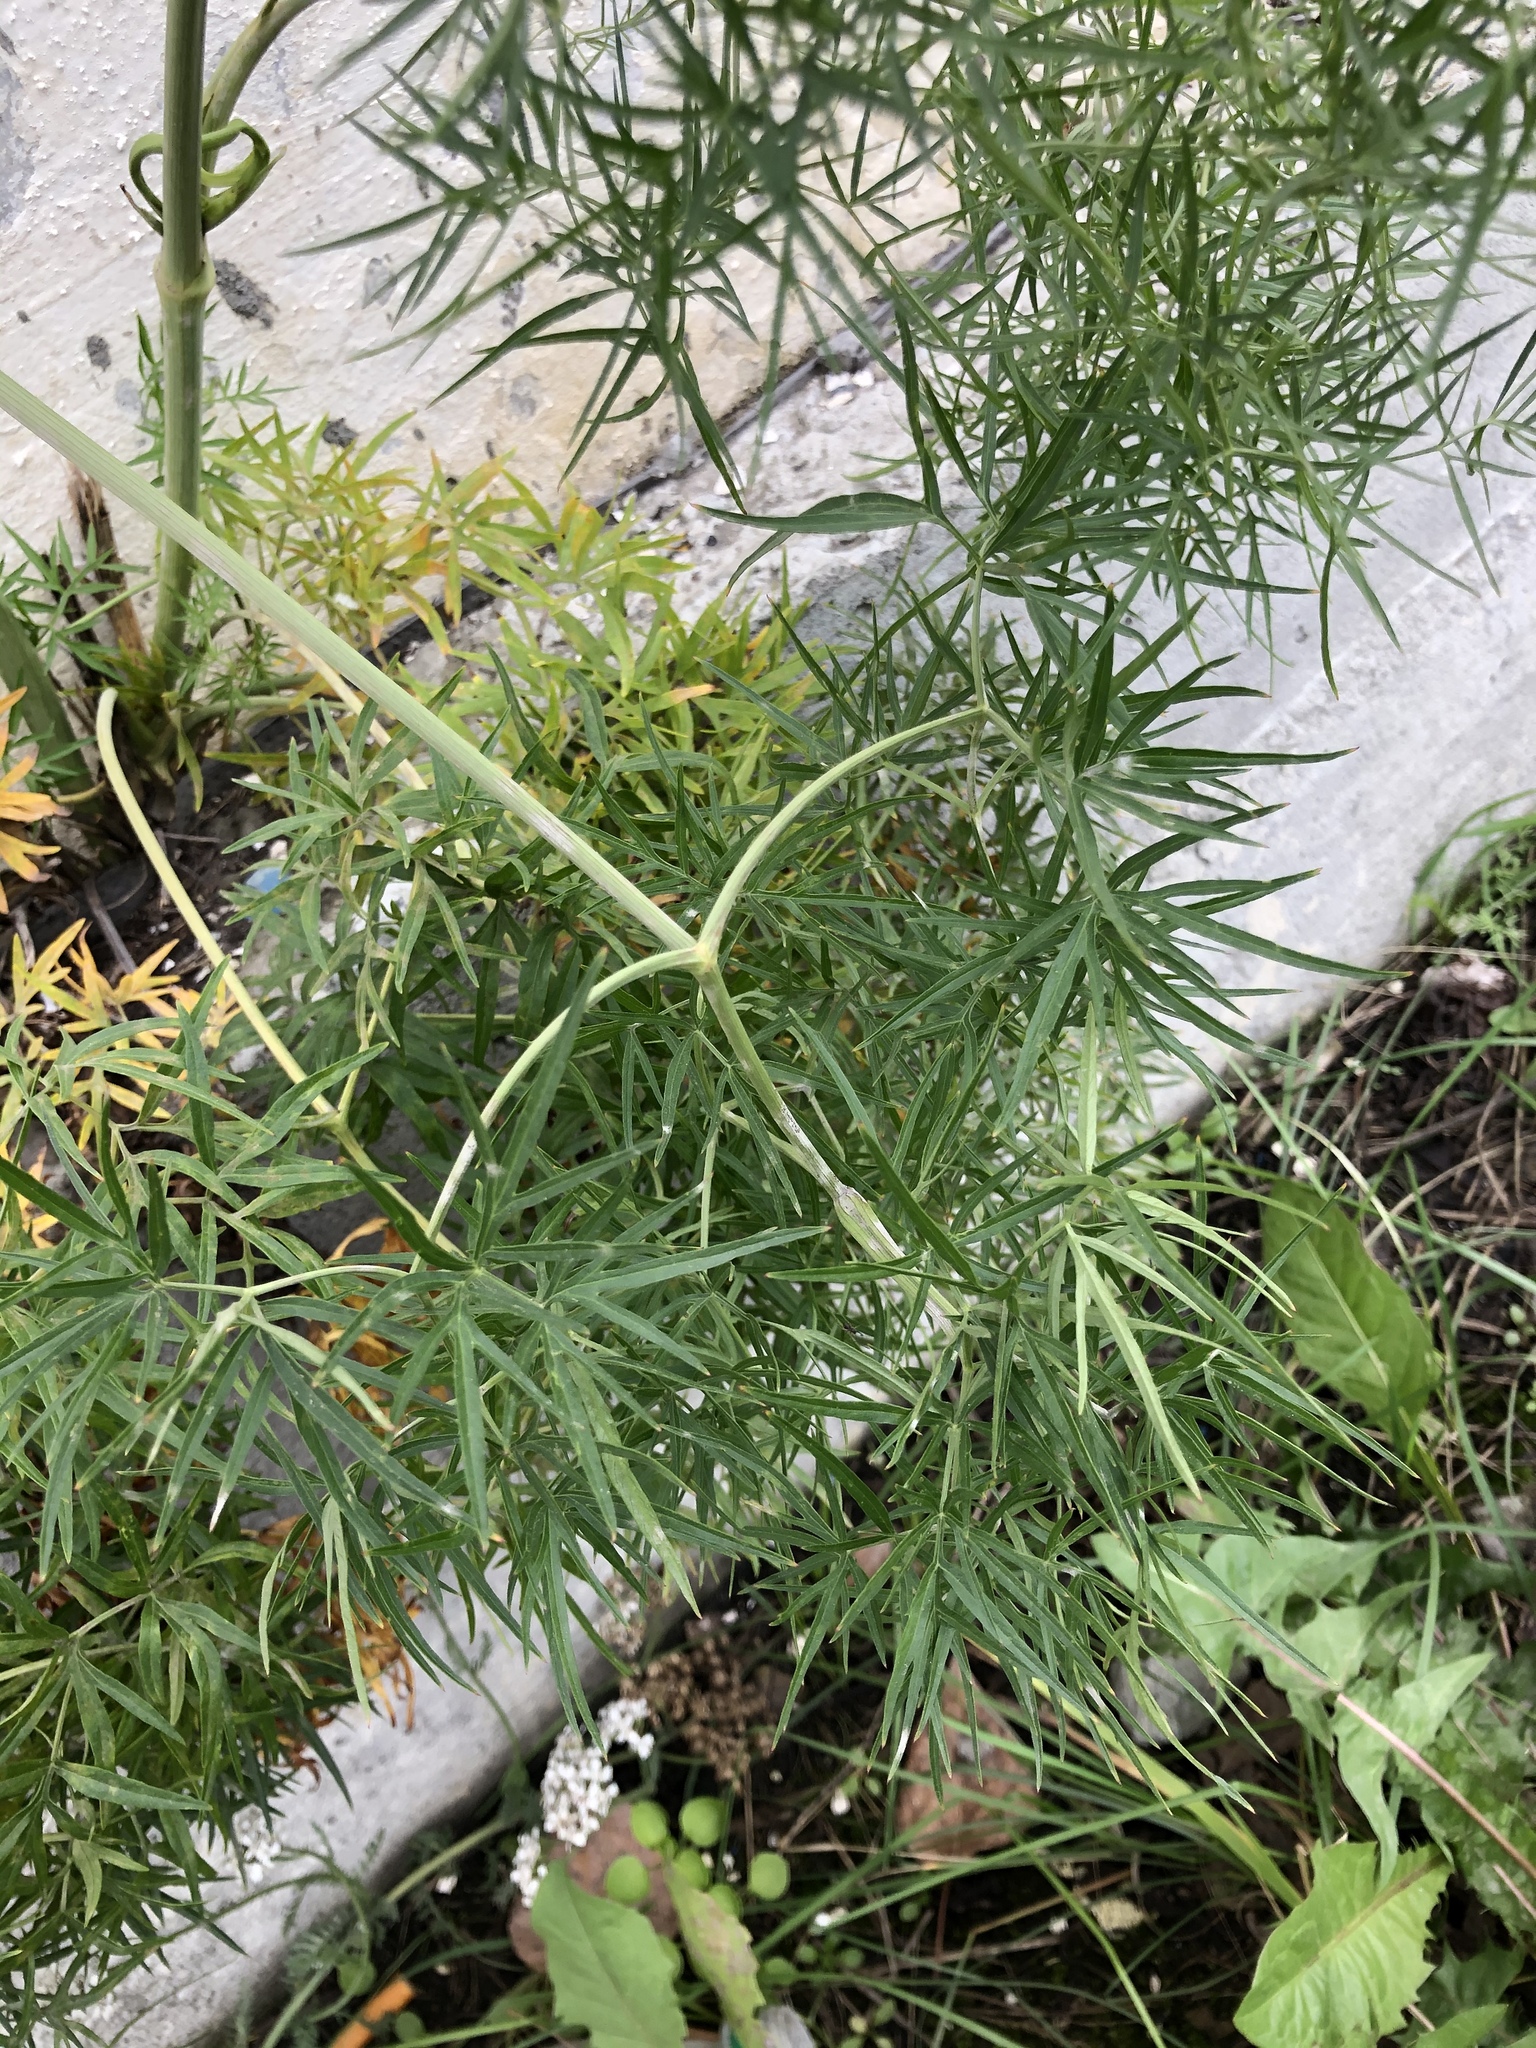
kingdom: Plantae
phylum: Tracheophyta
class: Magnoliopsida
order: Apiales
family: Apiaceae
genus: Cenolophium
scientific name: Cenolophium fischeri
